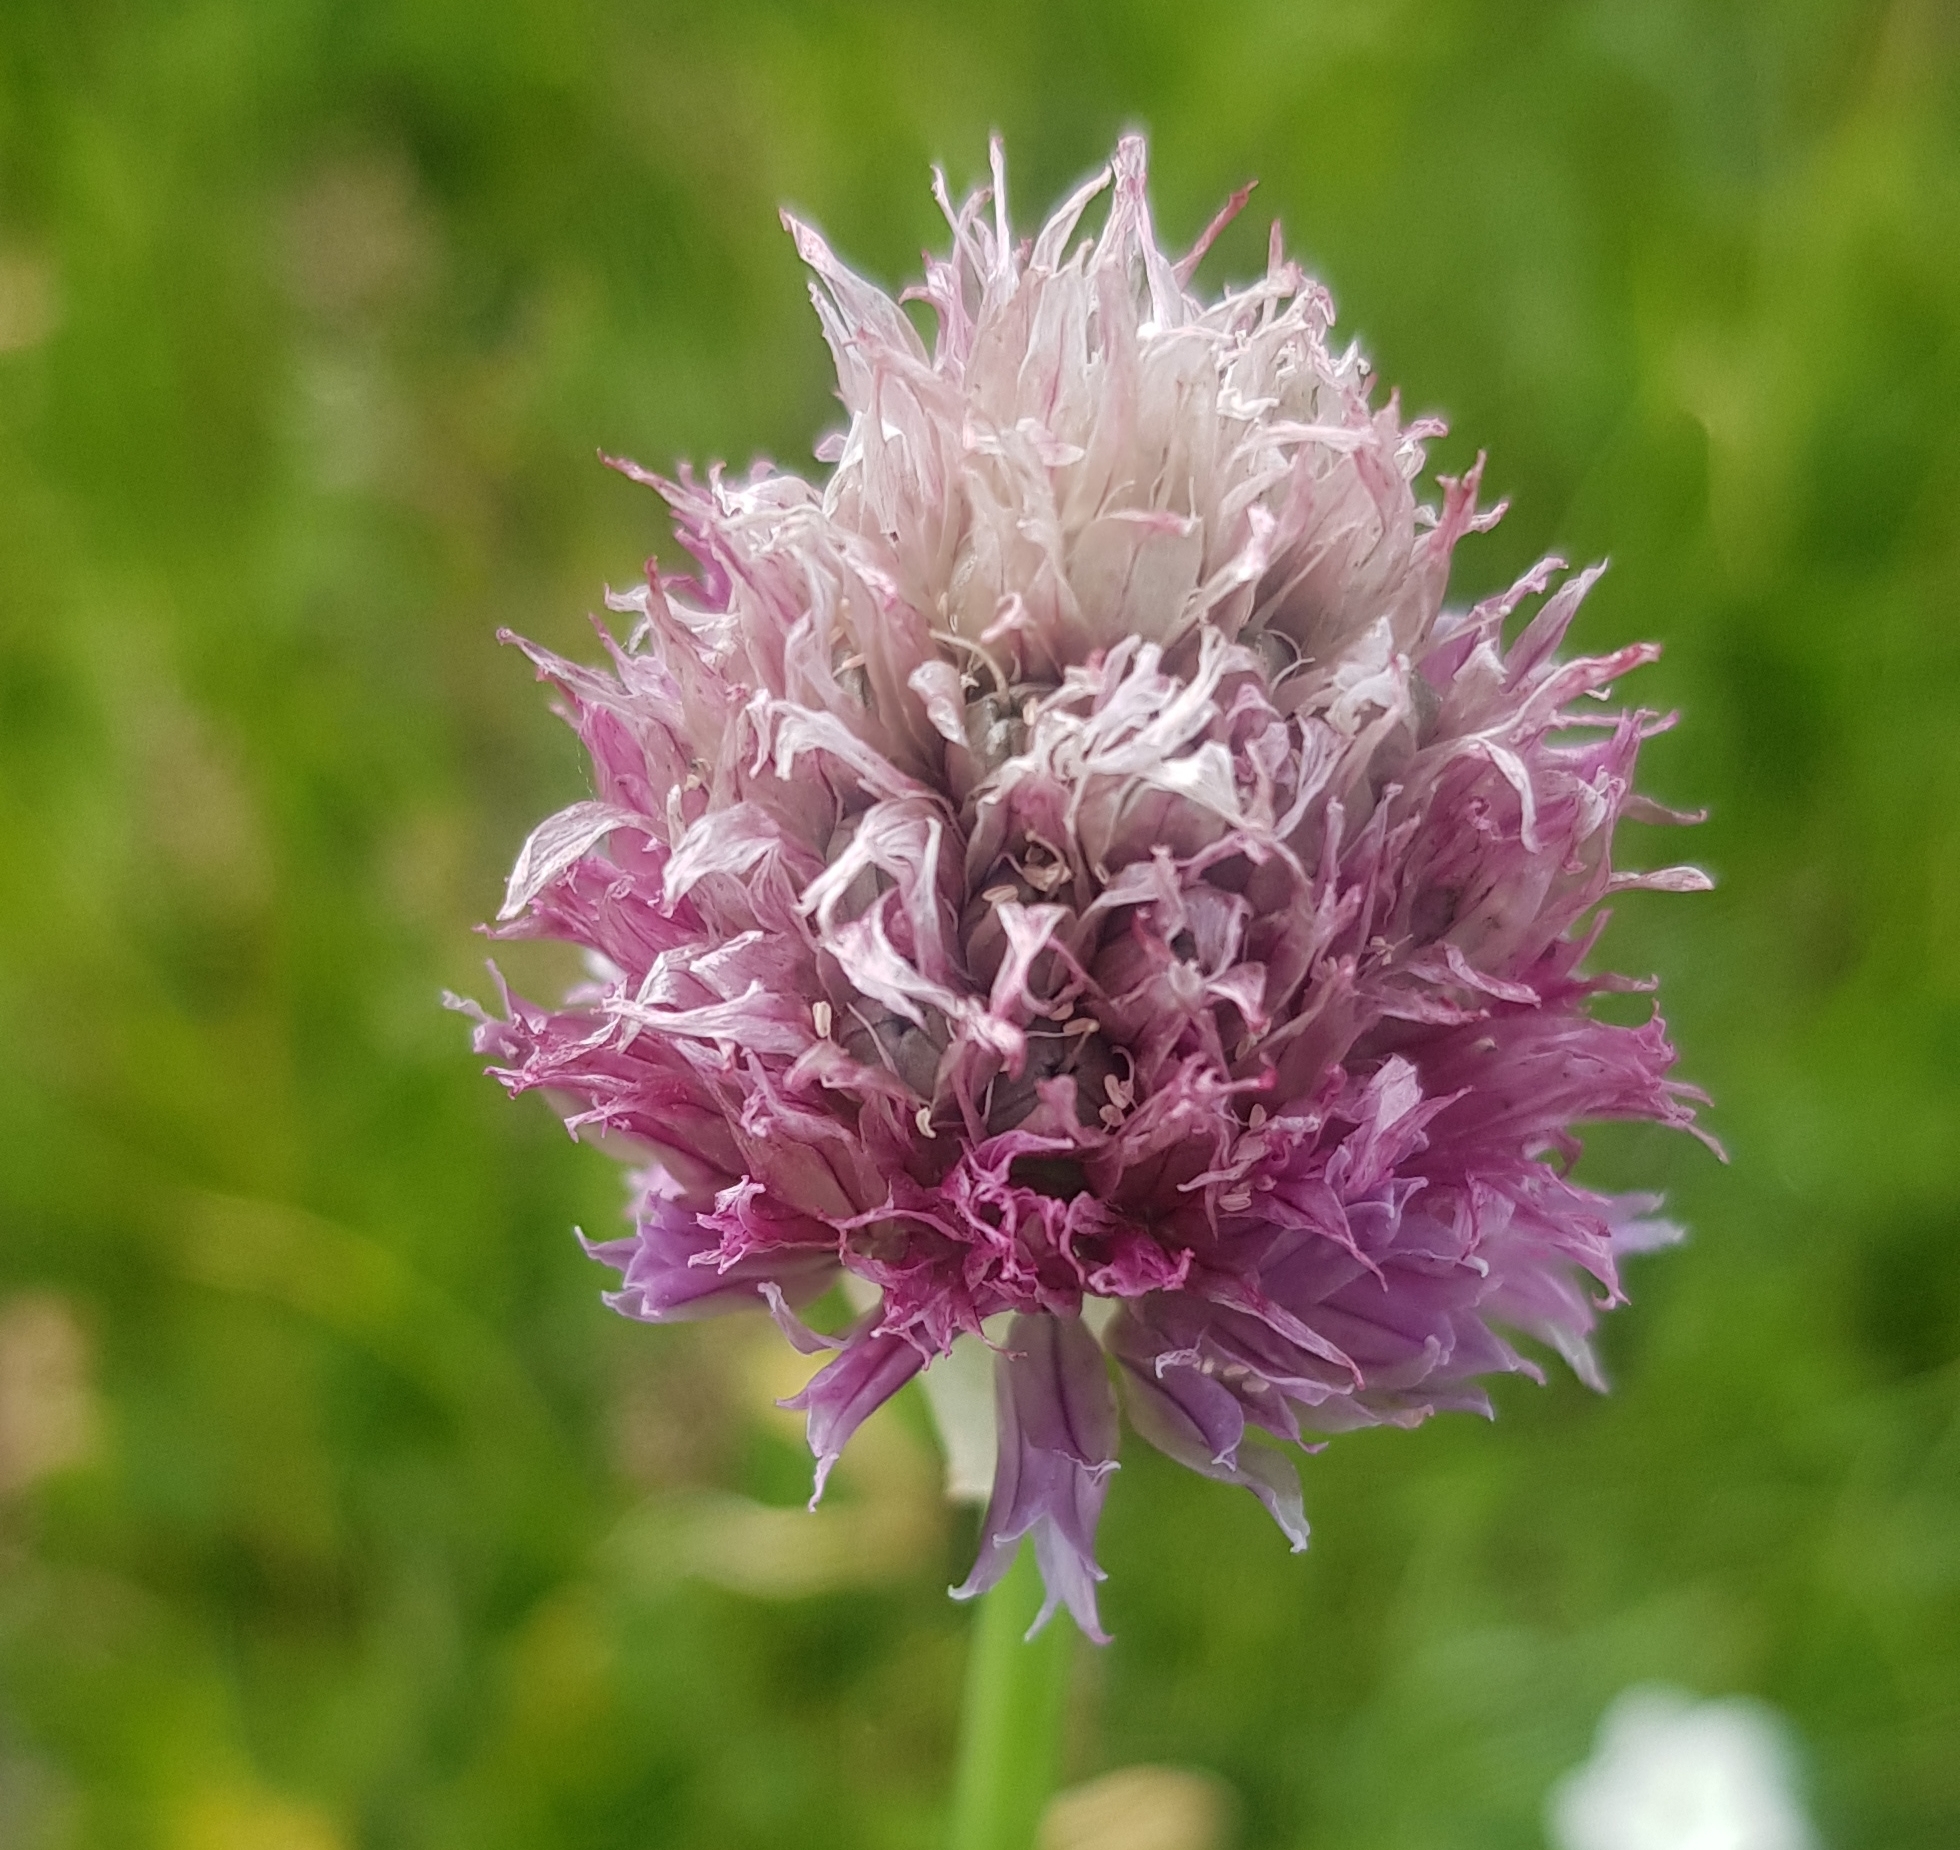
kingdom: Plantae
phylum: Tracheophyta
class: Liliopsida
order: Asparagales
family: Amaryllidaceae
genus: Allium
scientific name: Allium schoenoprasum
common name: Chives
